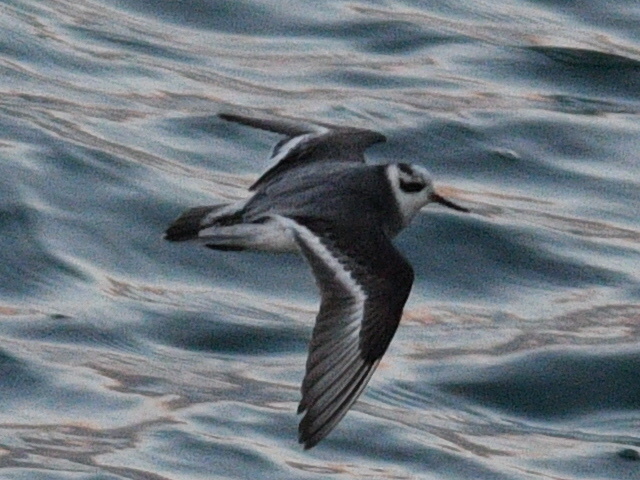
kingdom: Animalia
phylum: Chordata
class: Aves
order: Charadriiformes
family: Scolopacidae
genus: Phalaropus
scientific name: Phalaropus fulicarius
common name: Red phalarope
